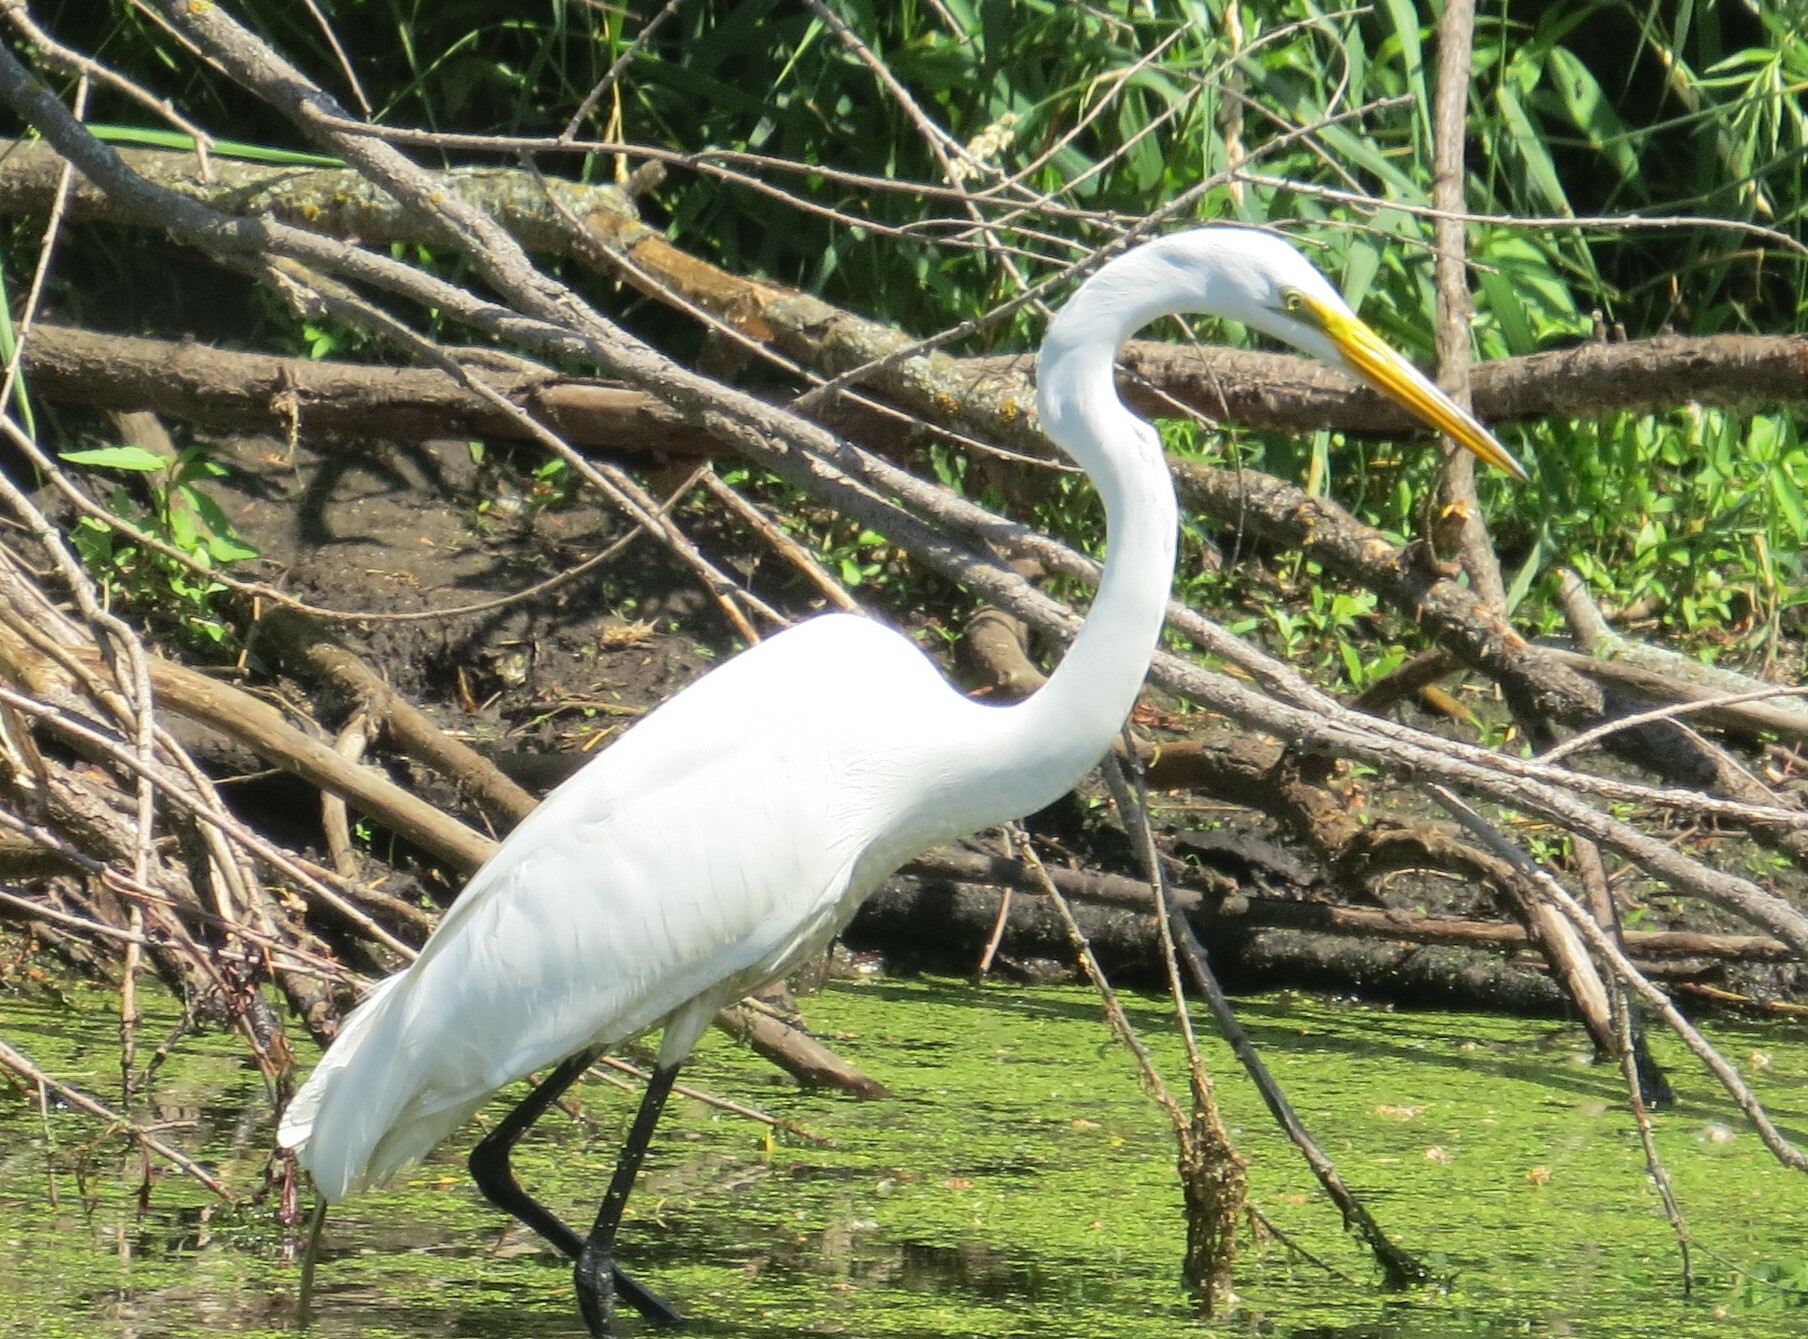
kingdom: Animalia
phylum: Chordata
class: Aves
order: Pelecaniformes
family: Ardeidae
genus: Ardea
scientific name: Ardea alba
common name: Great egret
